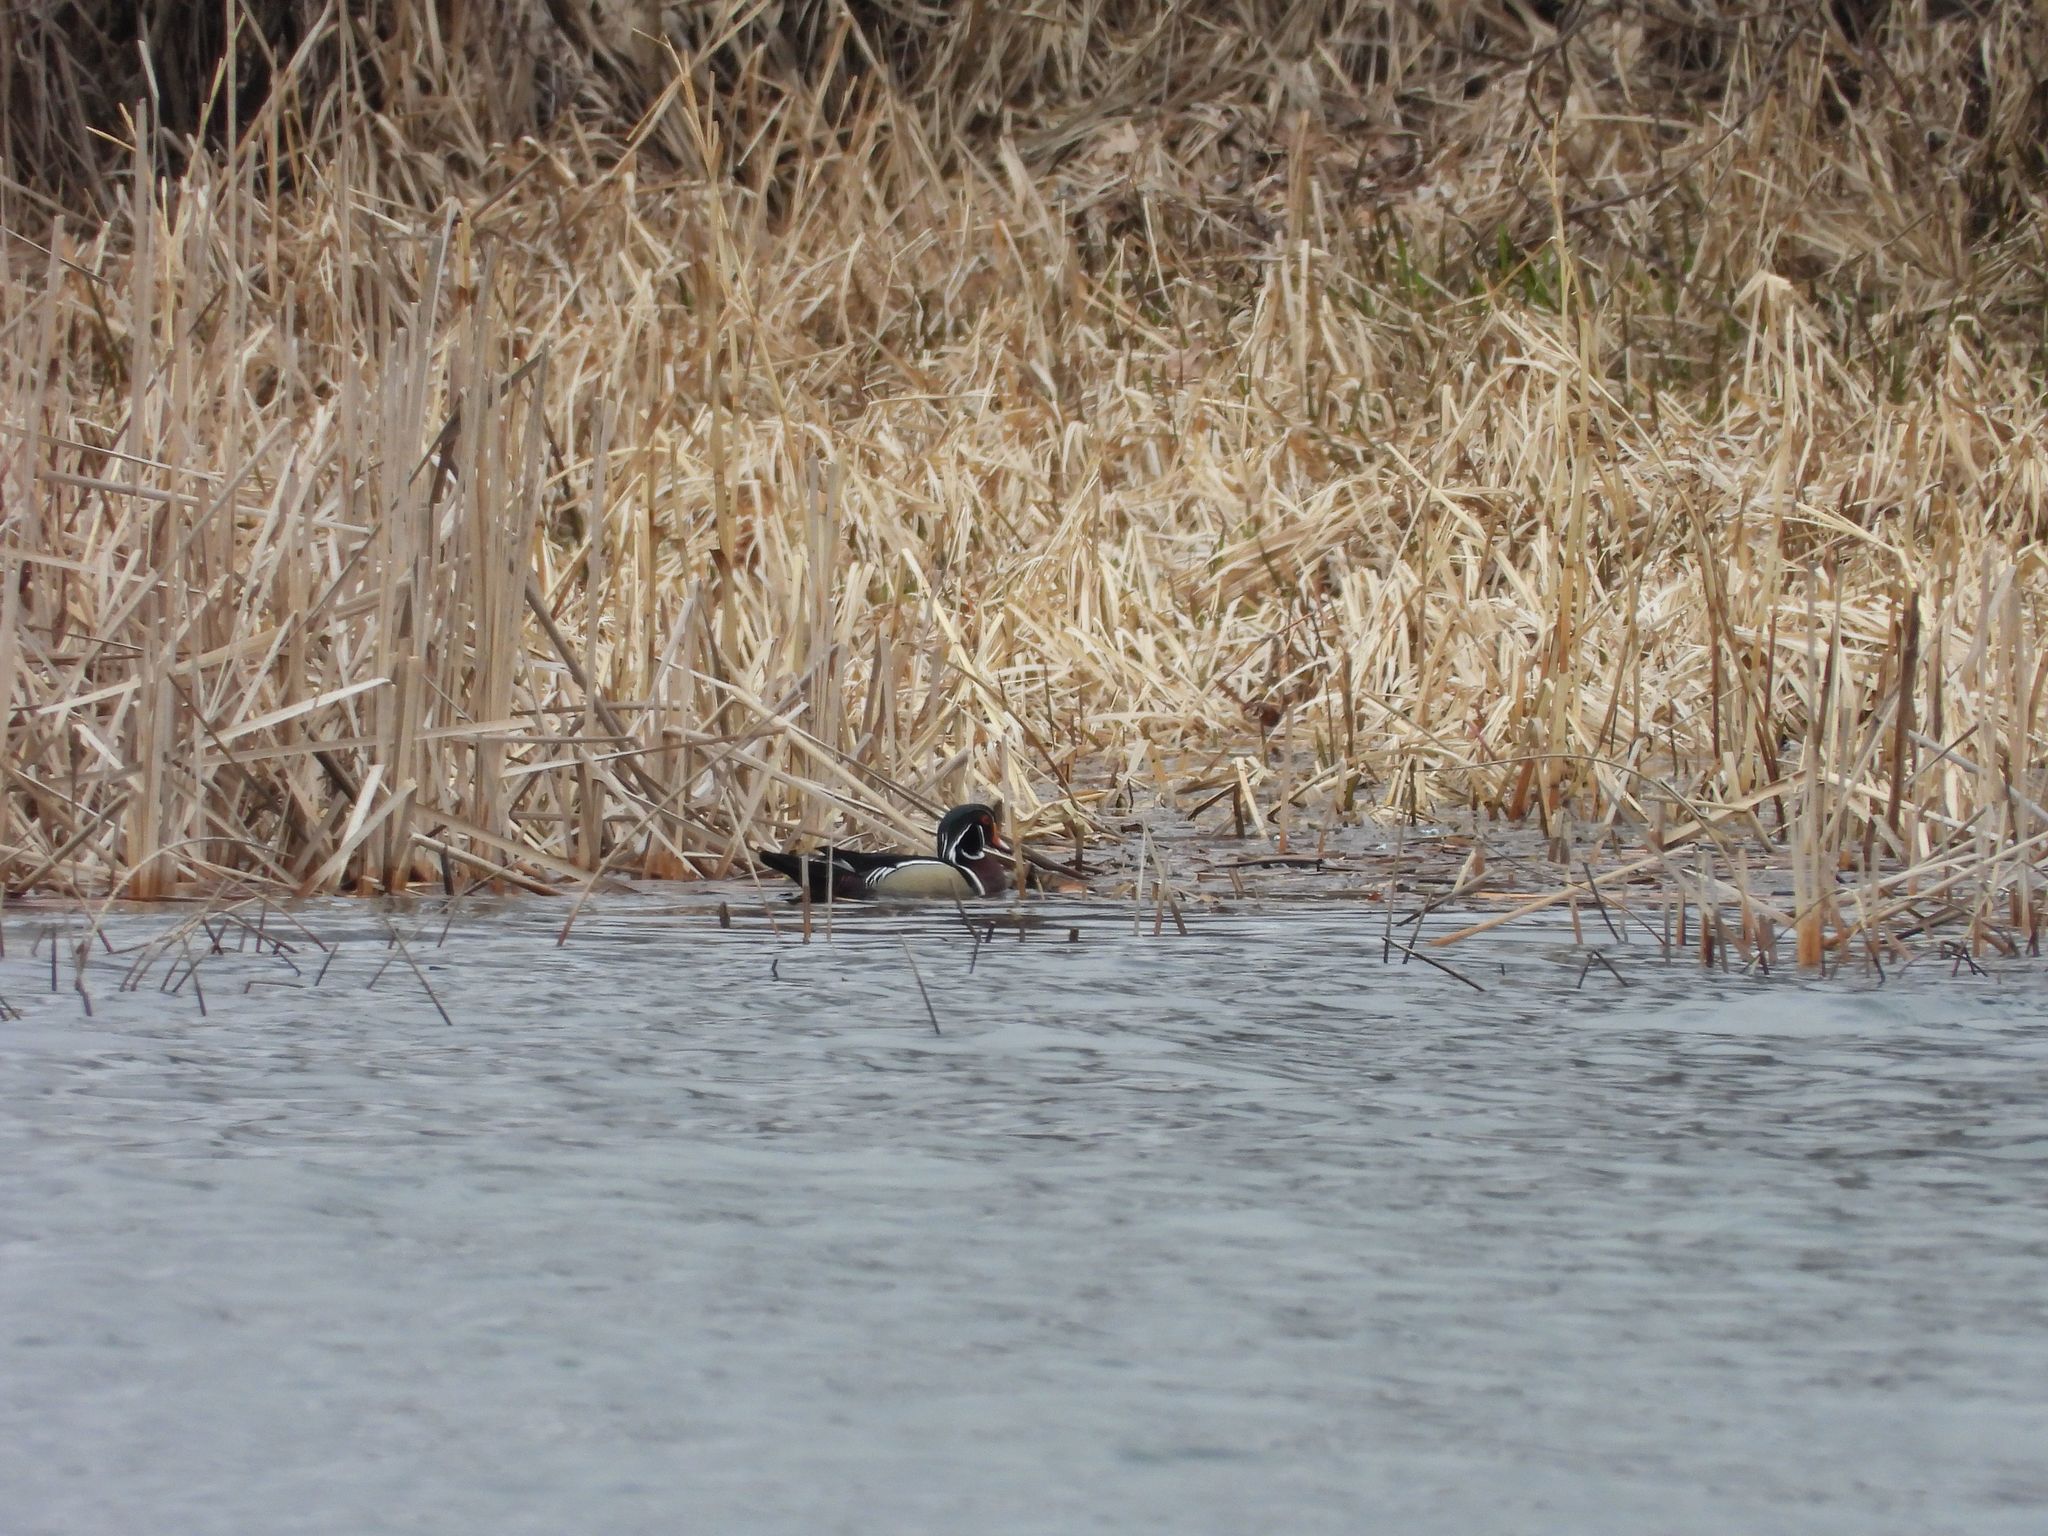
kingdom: Animalia
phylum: Chordata
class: Aves
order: Anseriformes
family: Anatidae
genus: Aix
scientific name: Aix sponsa
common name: Wood duck
